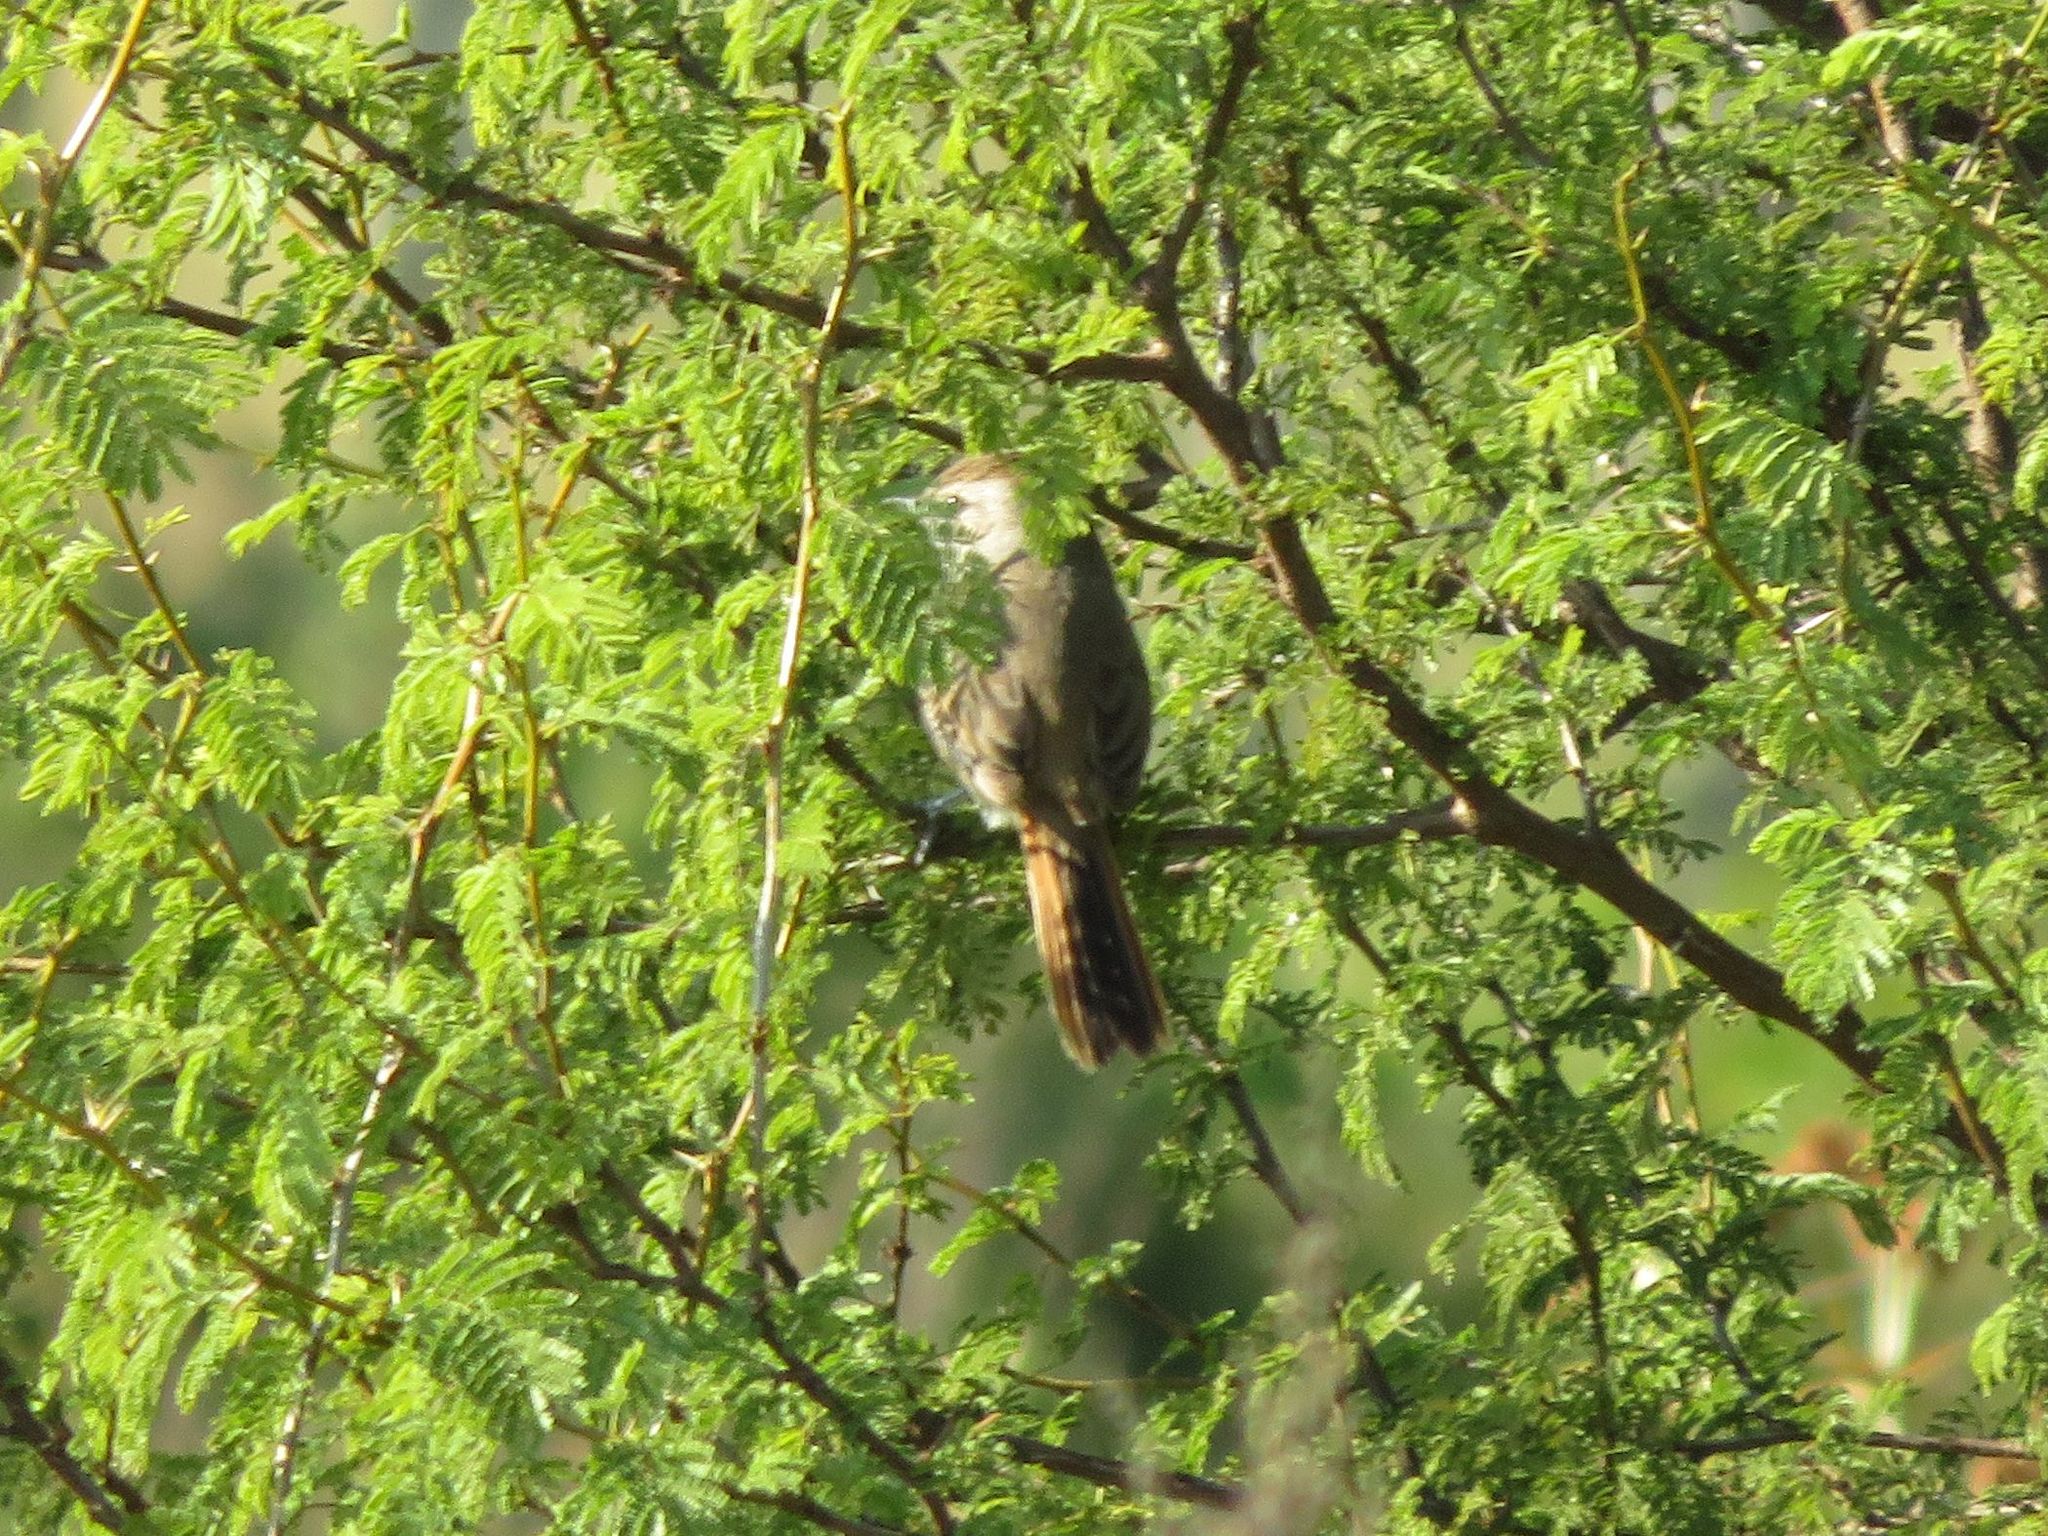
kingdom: Animalia
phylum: Chordata
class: Aves
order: Passeriformes
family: Furnariidae
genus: Phacellodomus
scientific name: Phacellodomus striaticollis
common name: Freckle-breasted thornbird
